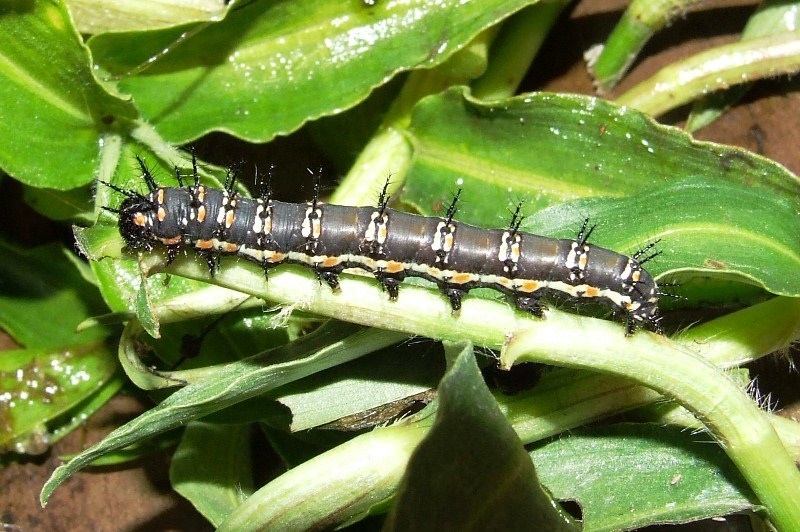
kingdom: Animalia
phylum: Arthropoda
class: Insecta
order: Lepidoptera
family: Nymphalidae
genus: Acraea
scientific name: Acraea Telchinia encedon
